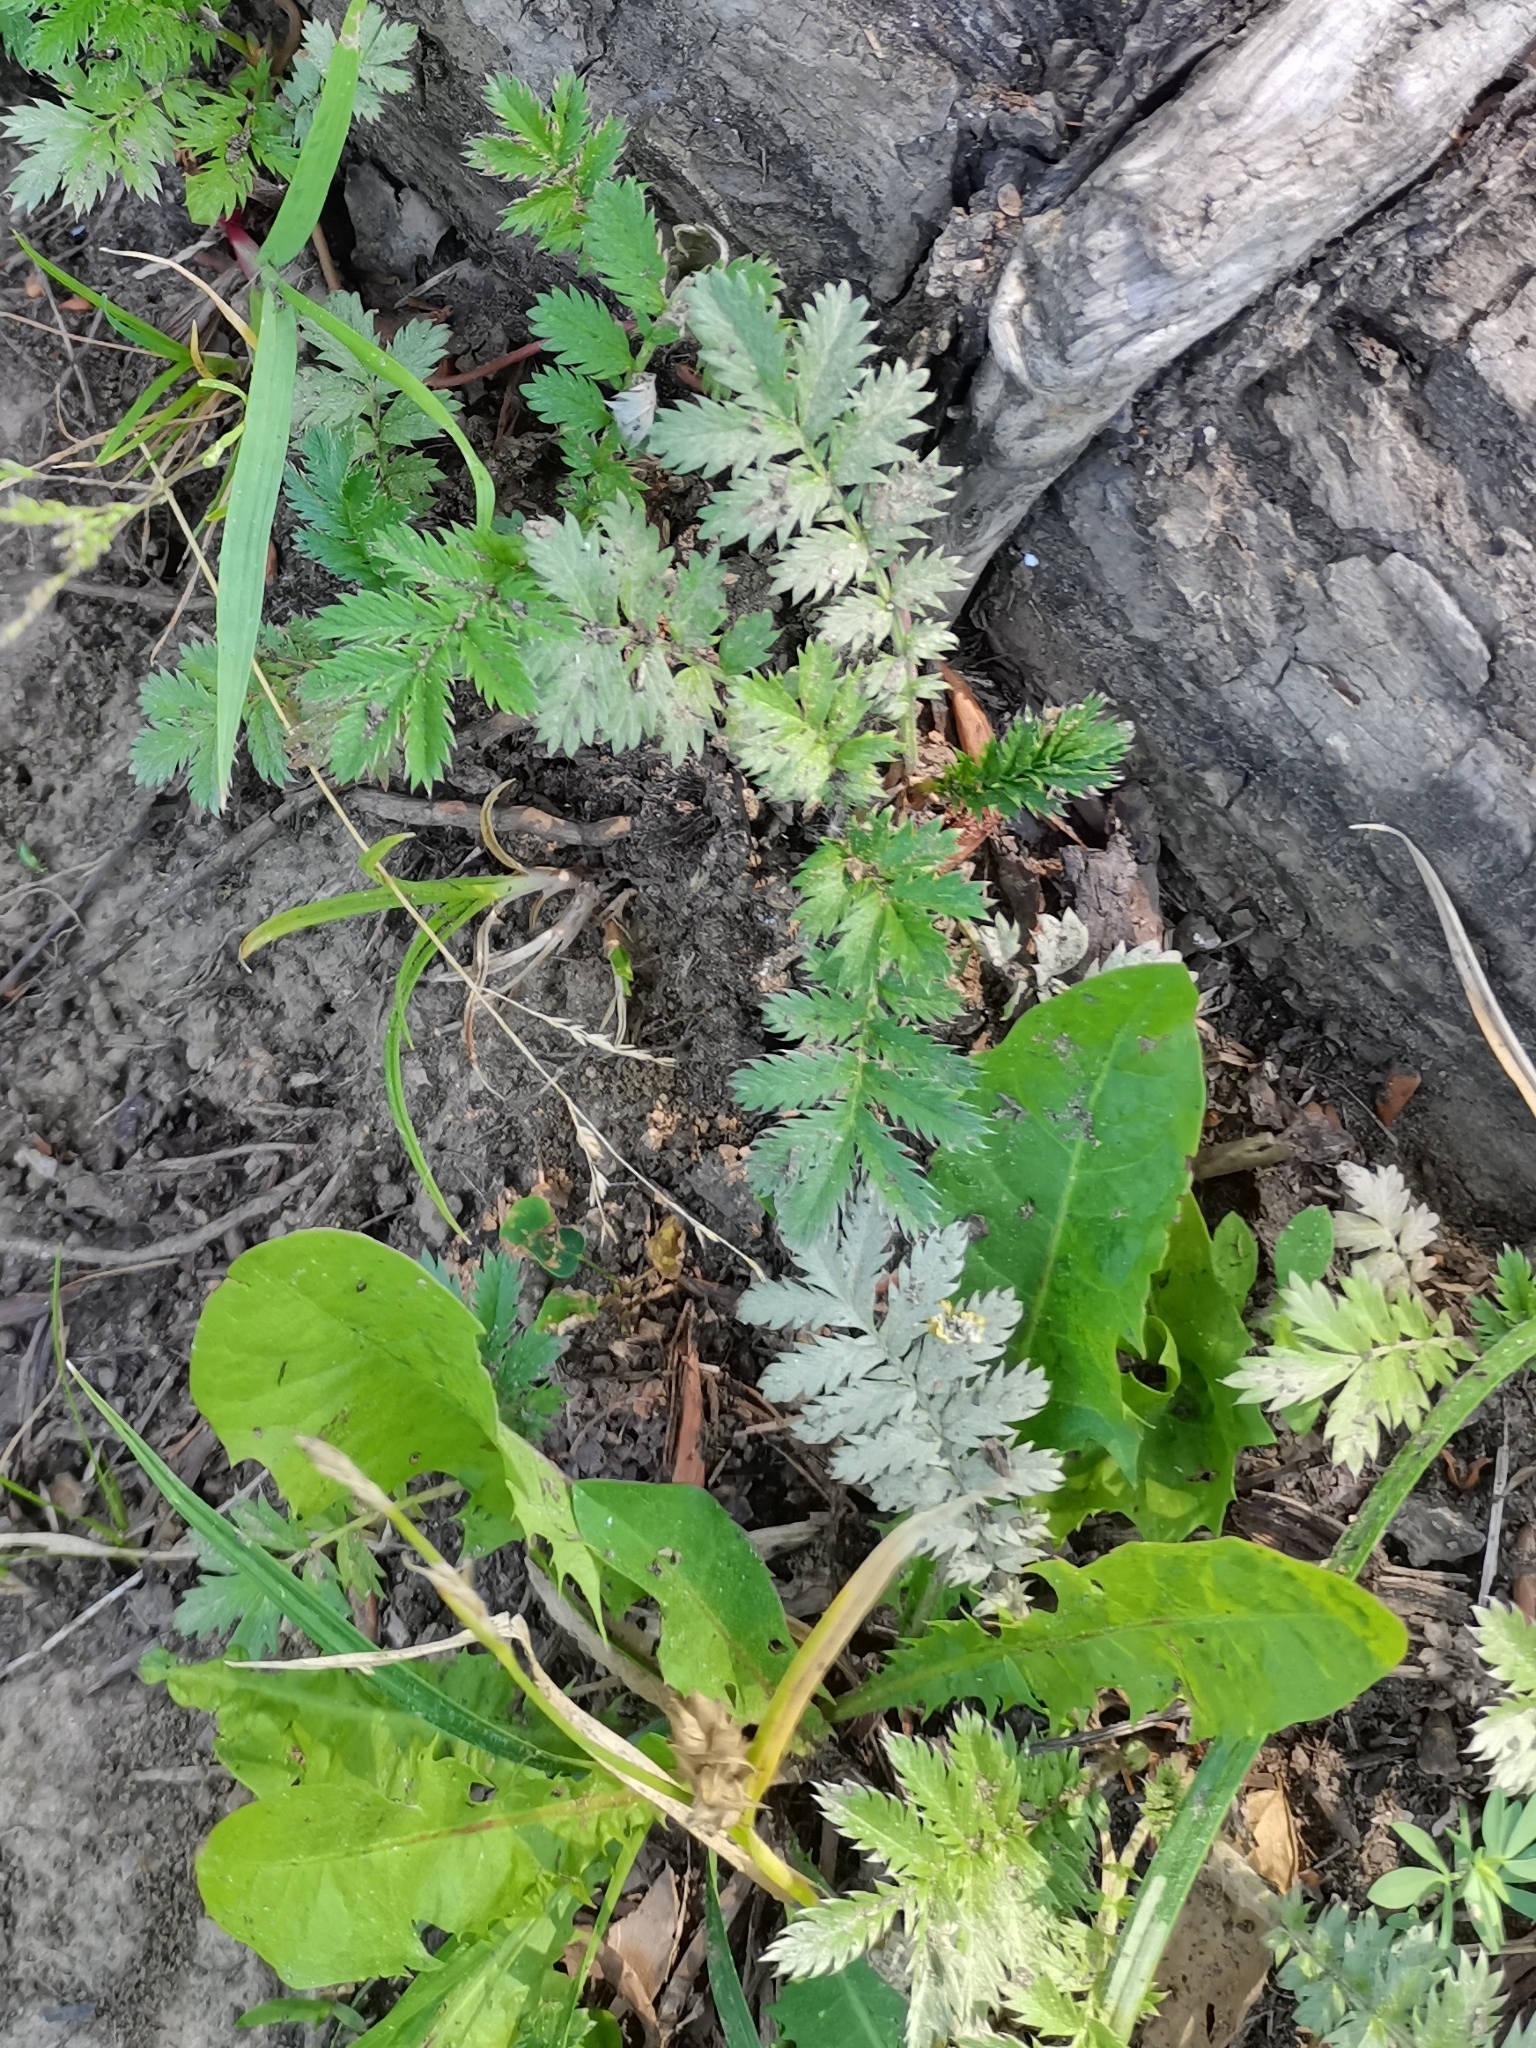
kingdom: Plantae
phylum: Tracheophyta
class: Magnoliopsida
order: Rosales
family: Rosaceae
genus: Argentina
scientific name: Argentina anserina
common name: Common silverweed
